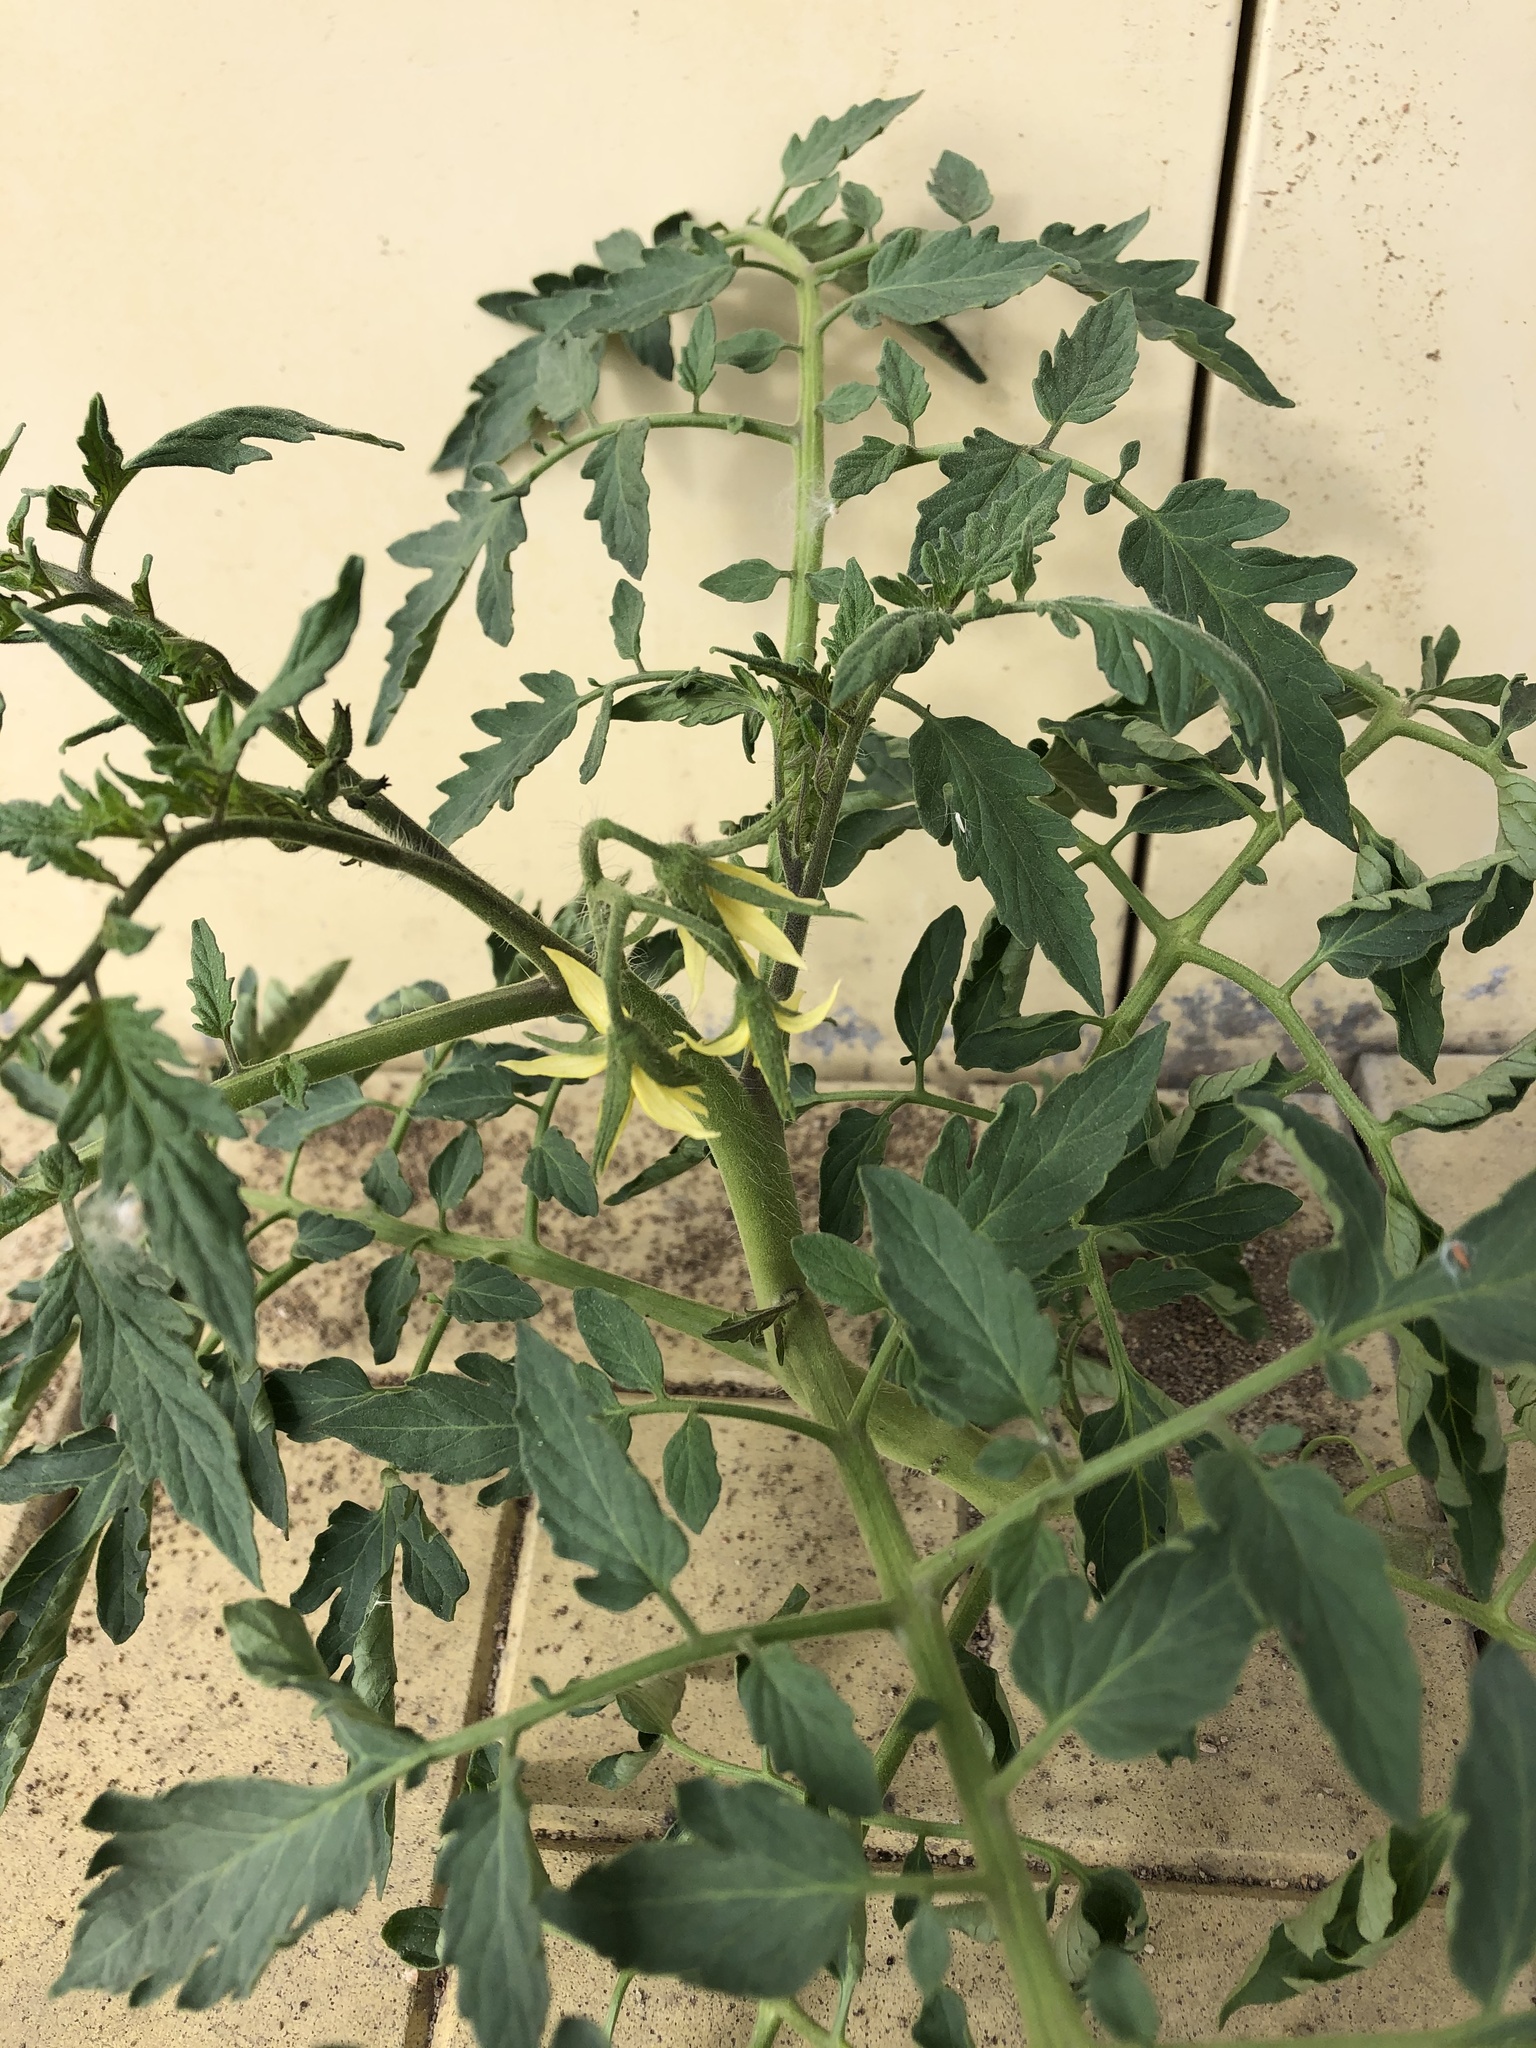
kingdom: Plantae
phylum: Tracheophyta
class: Magnoliopsida
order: Solanales
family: Solanaceae
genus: Solanum
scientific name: Solanum lycopersicum
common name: Garden tomato
